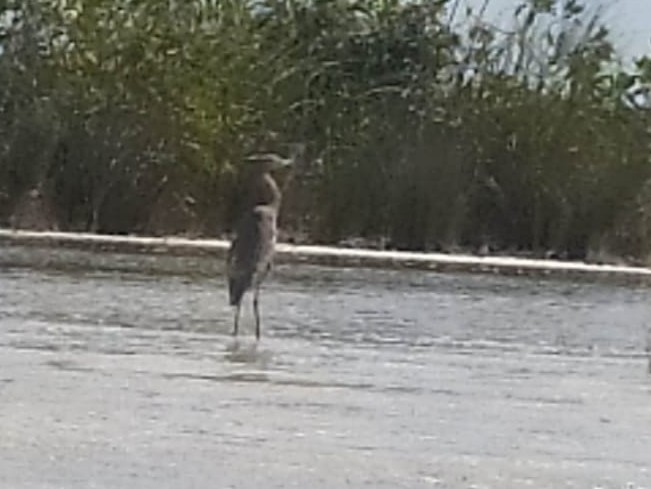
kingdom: Animalia
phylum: Chordata
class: Aves
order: Pelecaniformes
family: Ardeidae
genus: Egretta
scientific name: Egretta rufescens
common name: Reddish egret
